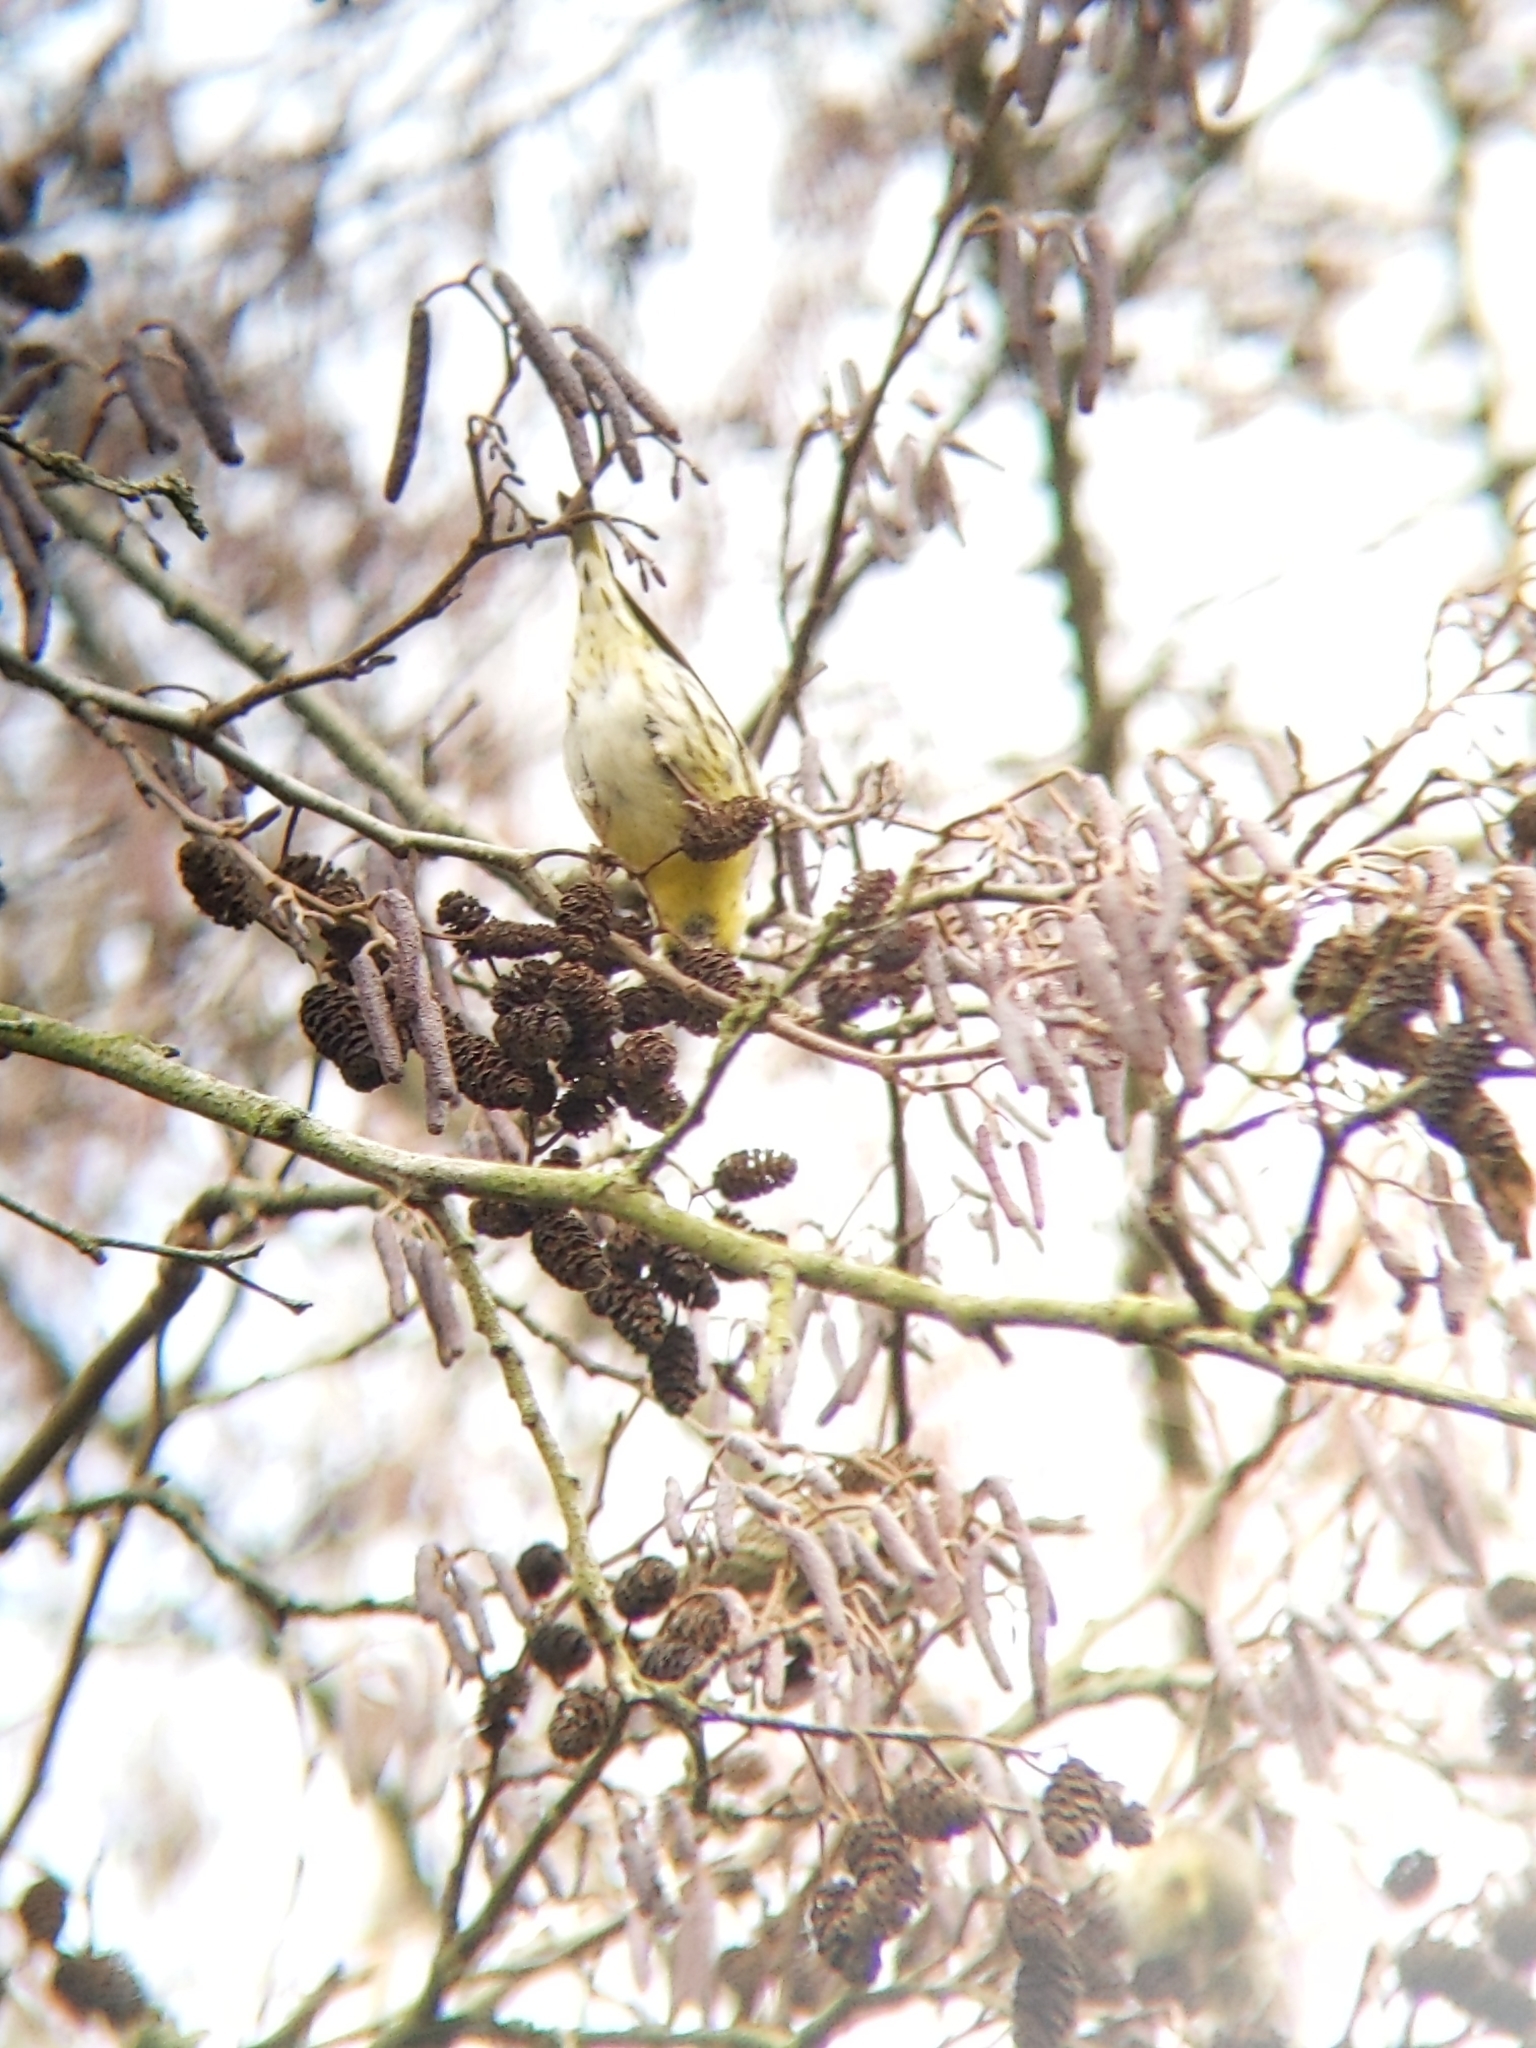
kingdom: Animalia
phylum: Chordata
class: Aves
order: Passeriformes
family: Fringillidae
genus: Spinus
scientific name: Spinus spinus
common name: Eurasian siskin
